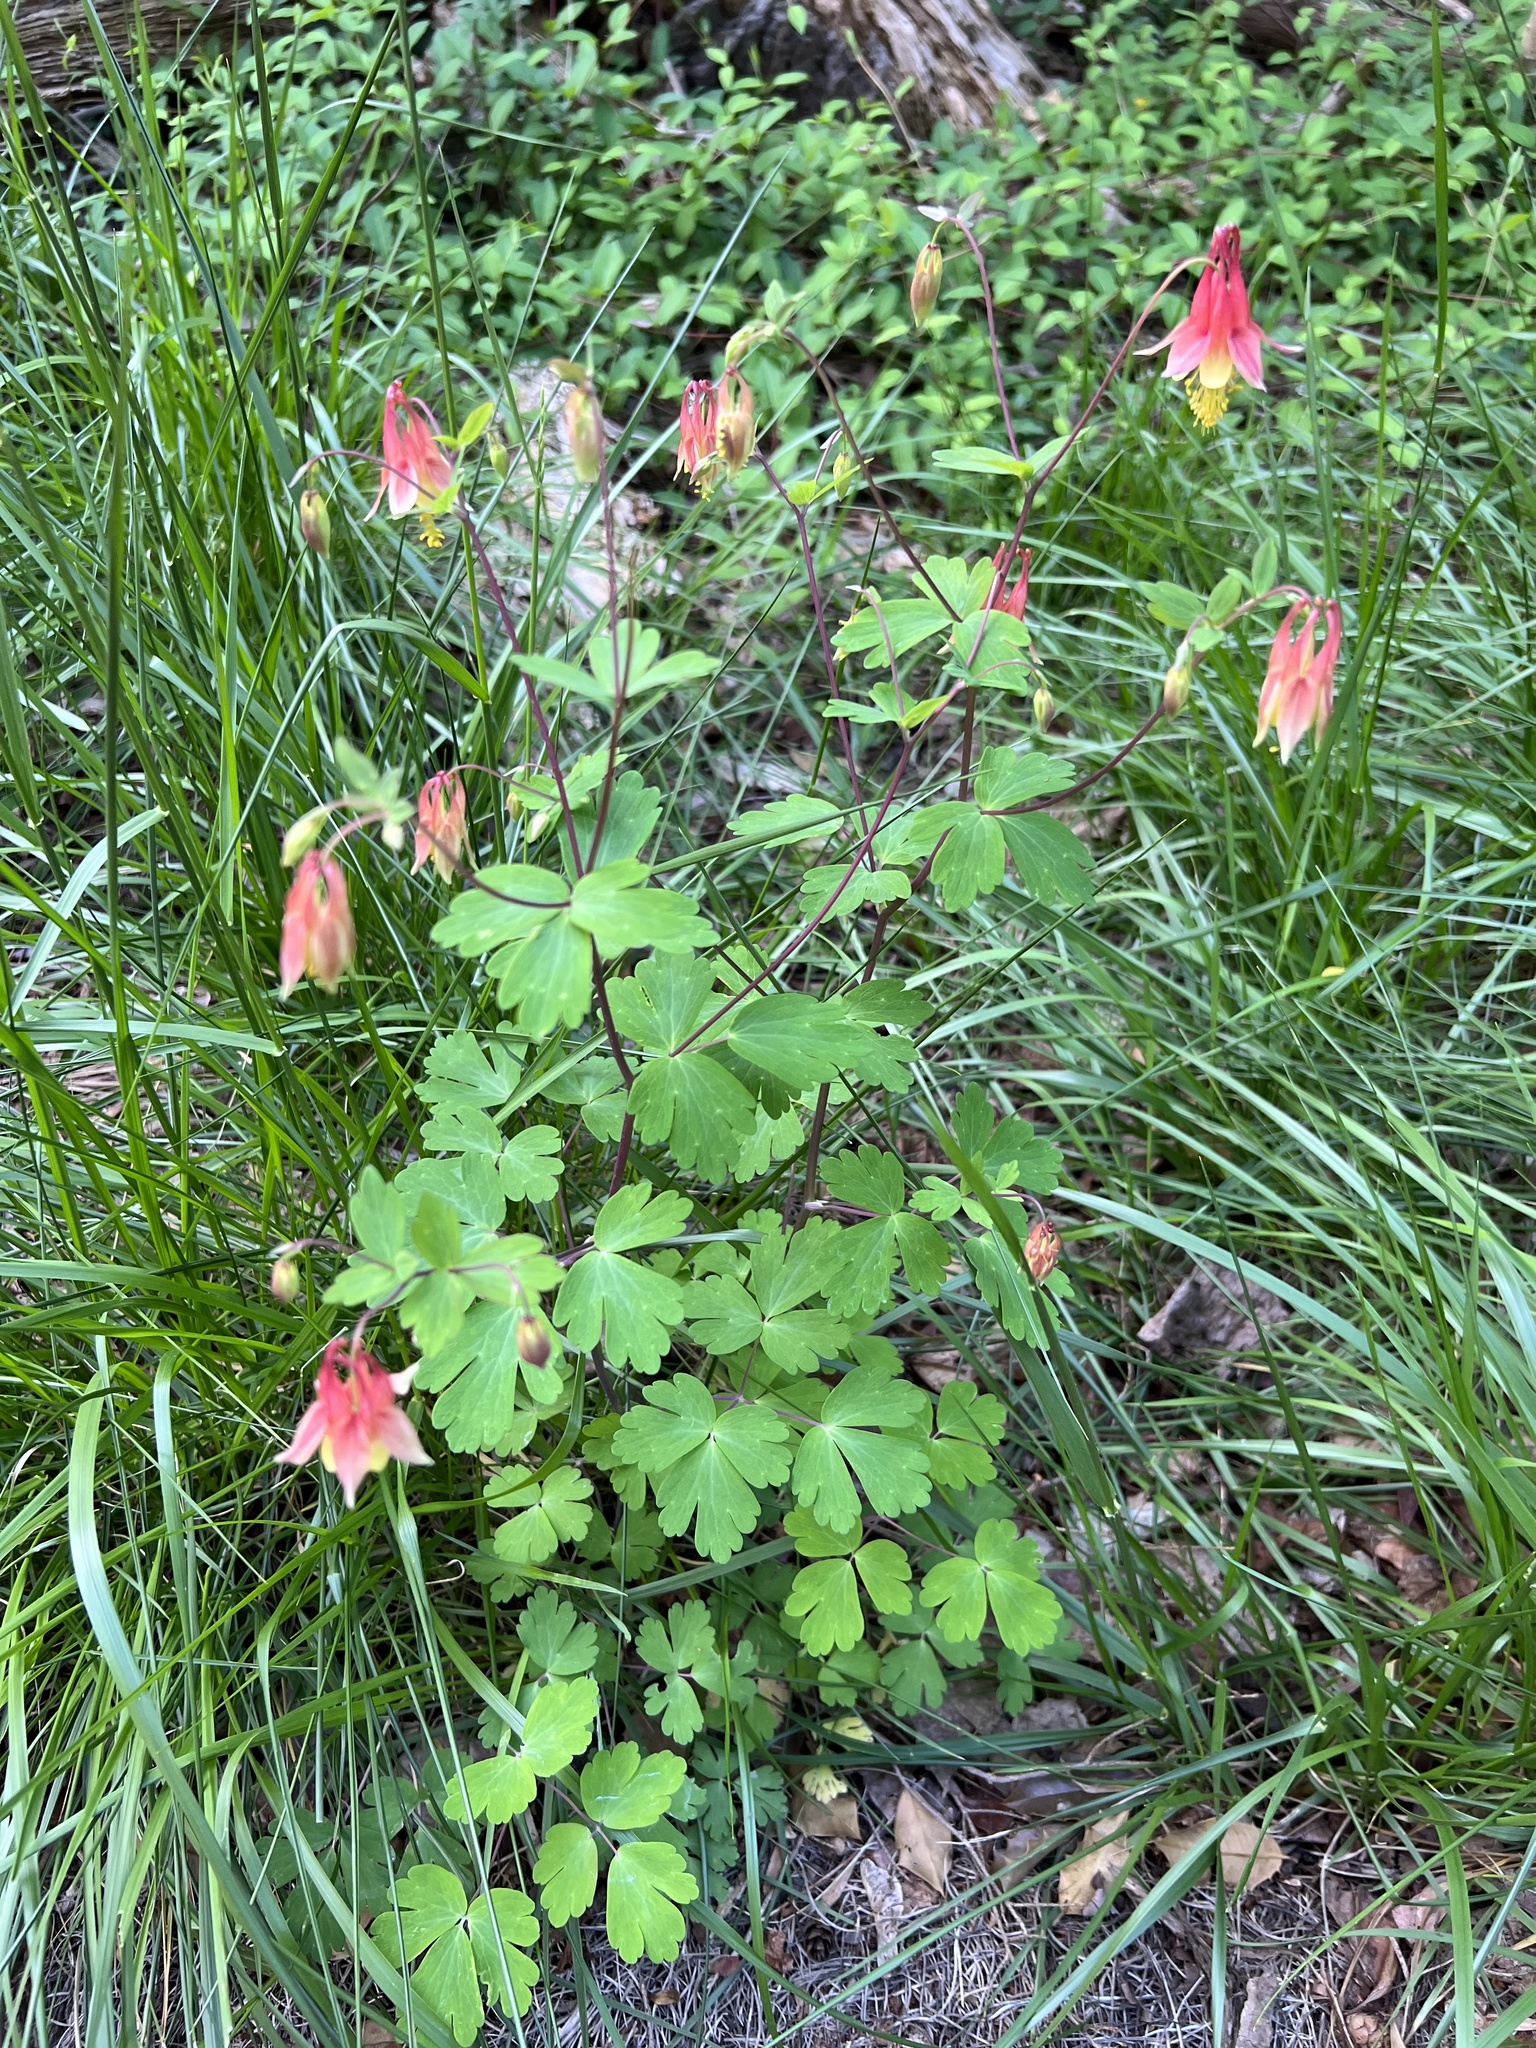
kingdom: Plantae
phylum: Tracheophyta
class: Magnoliopsida
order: Ranunculales
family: Ranunculaceae
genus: Aquilegia
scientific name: Aquilegia canadensis
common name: American columbine
